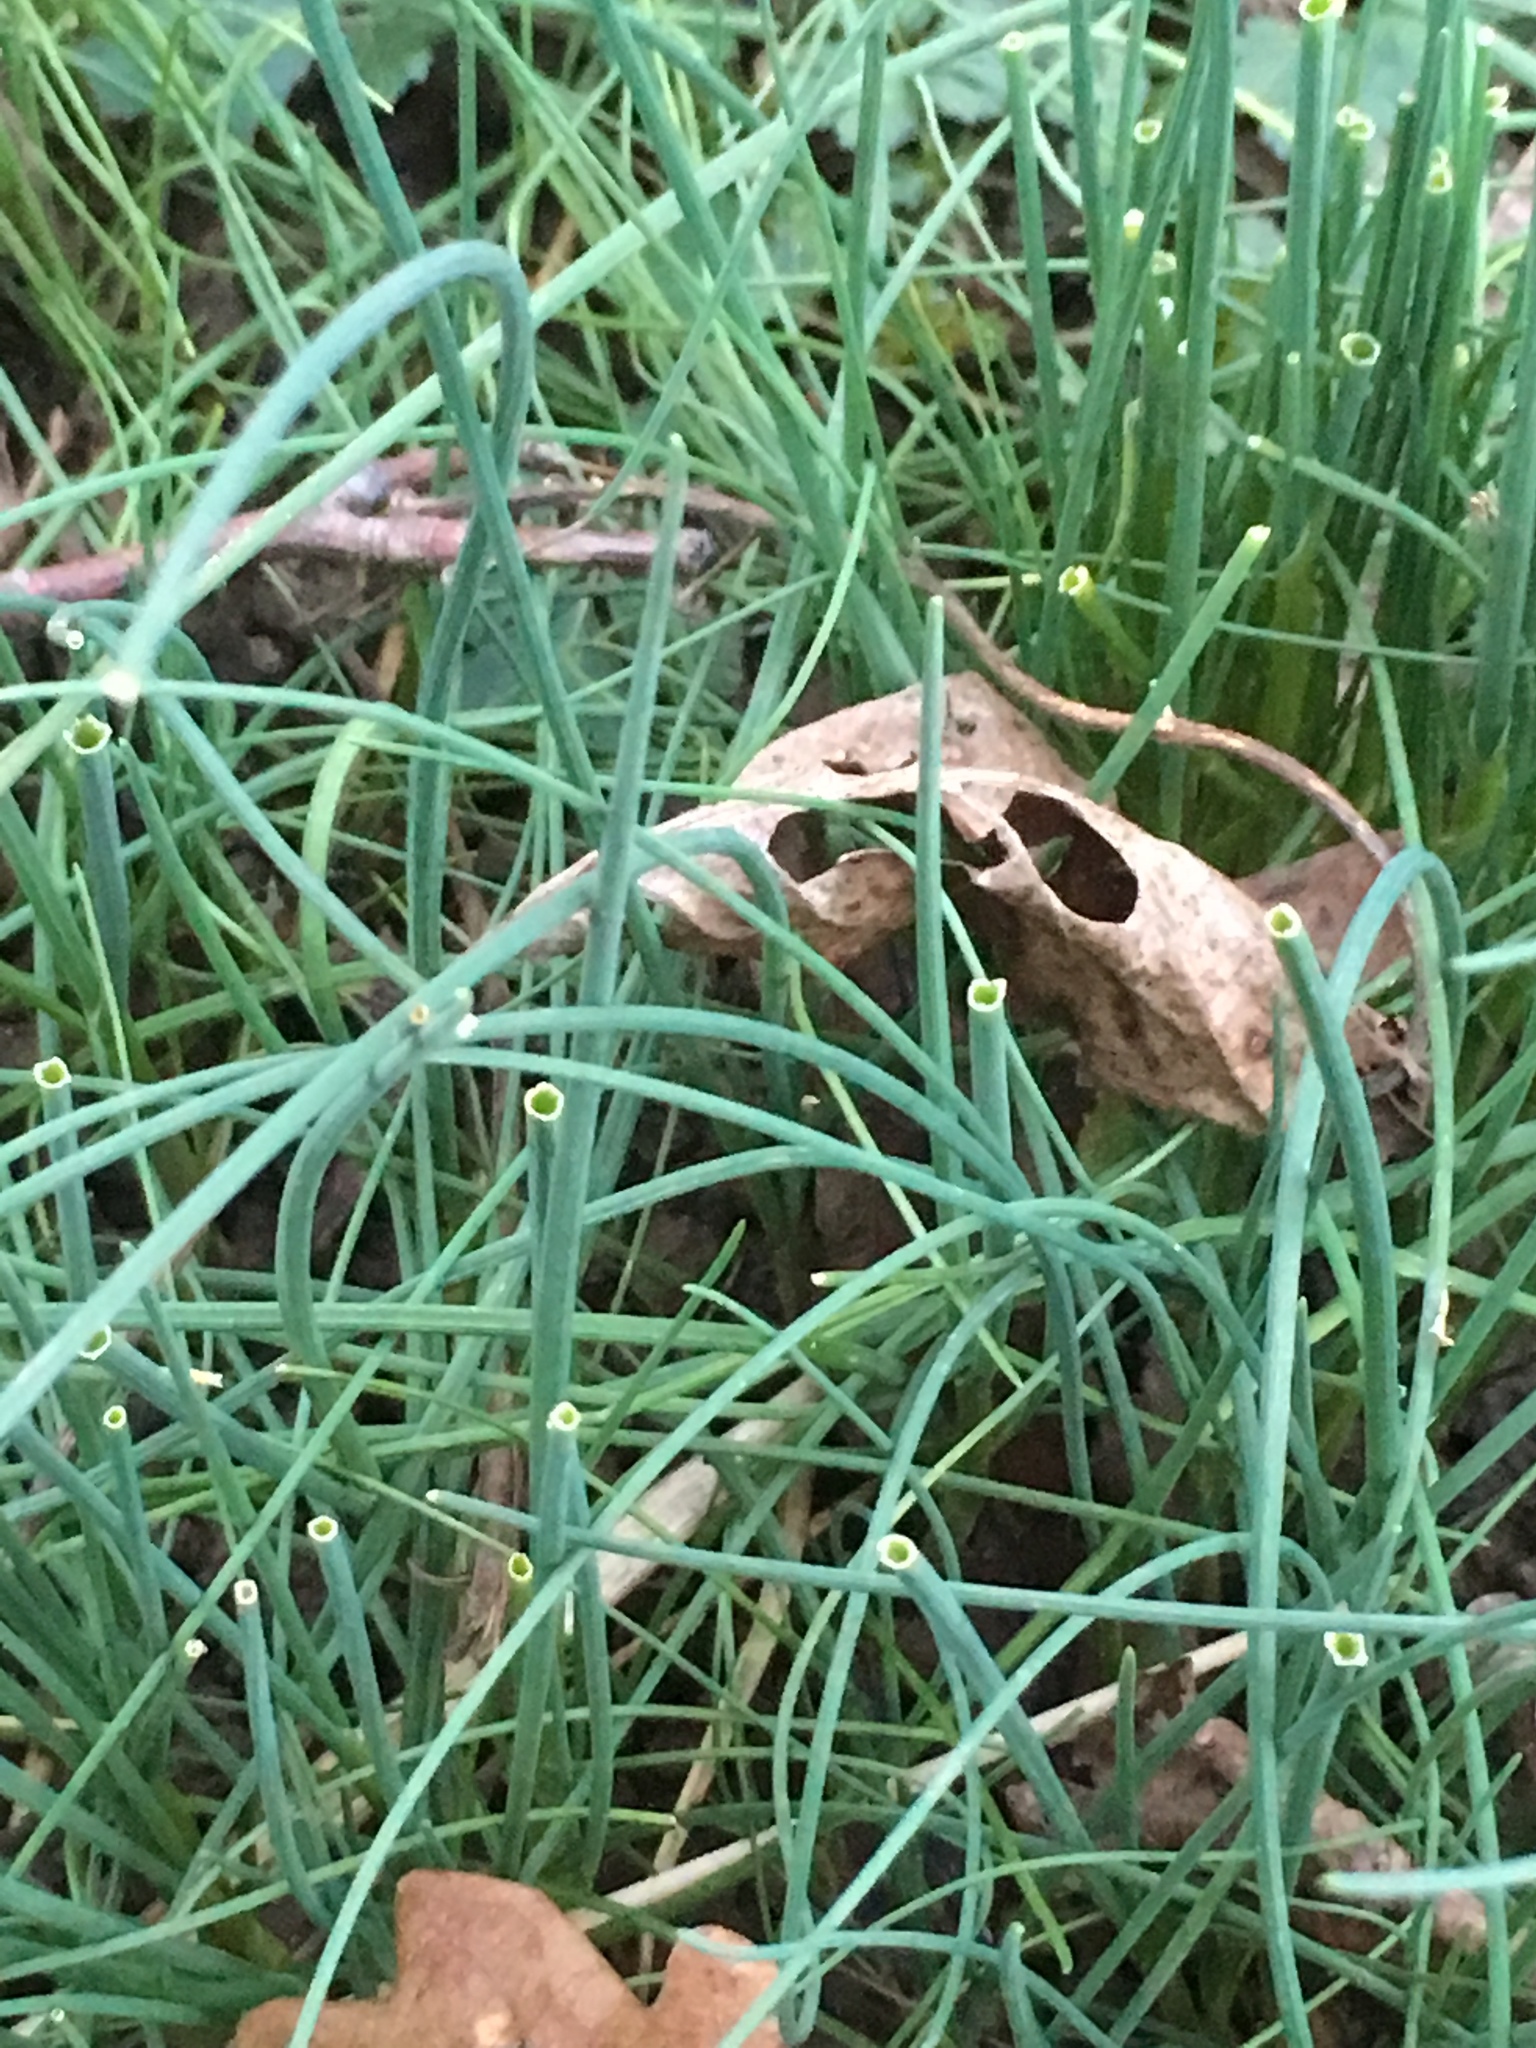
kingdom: Plantae
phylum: Tracheophyta
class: Liliopsida
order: Asparagales
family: Amaryllidaceae
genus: Allium
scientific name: Allium schoenoprasum
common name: Chives
